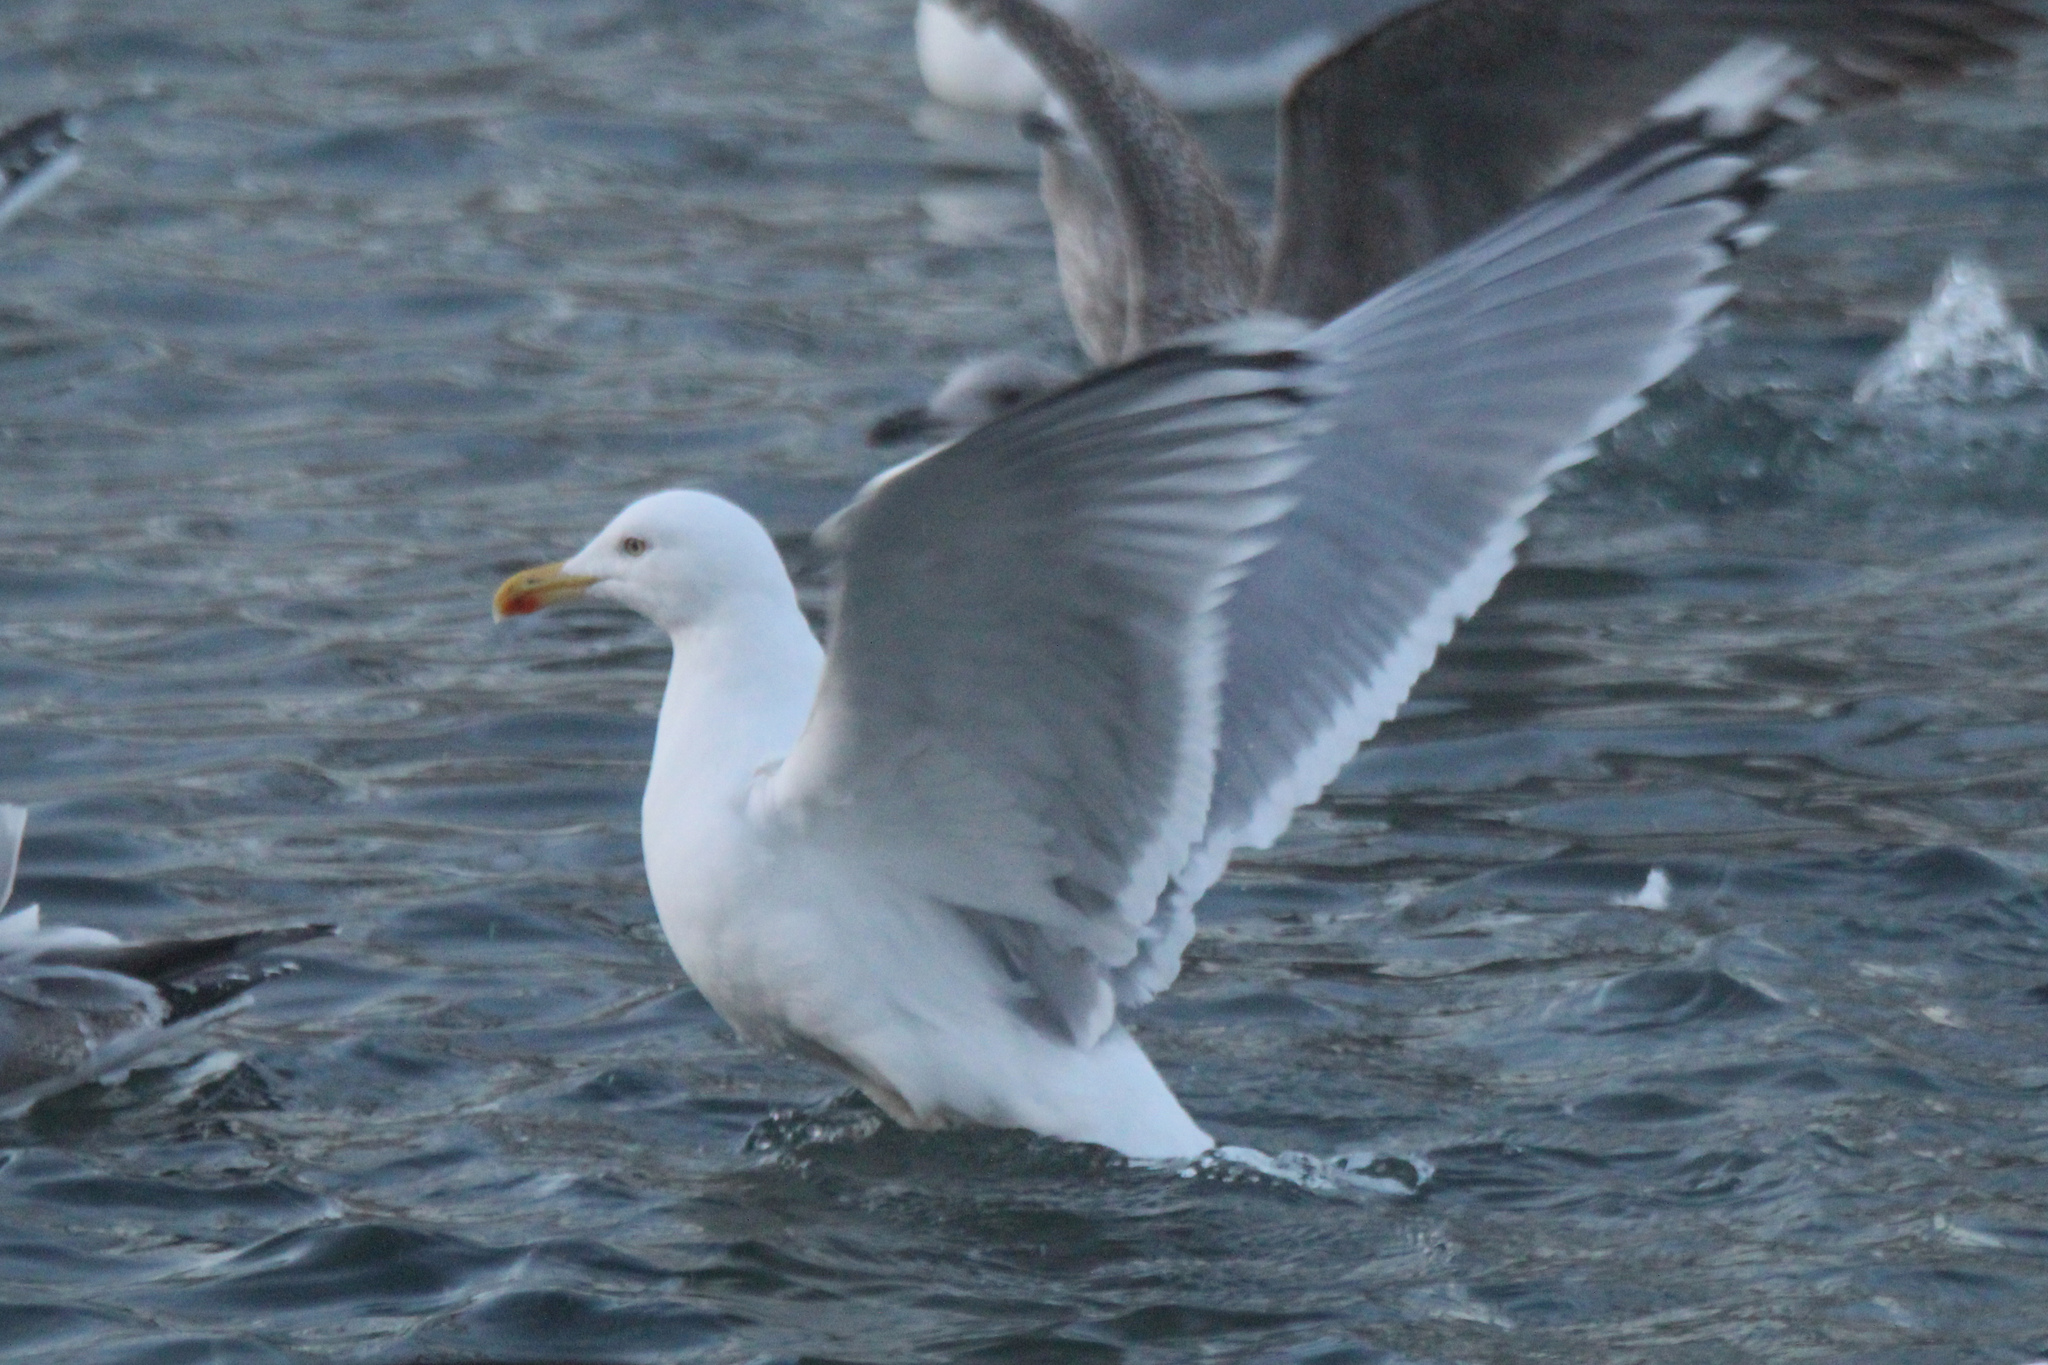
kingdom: Animalia
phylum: Chordata
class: Aves
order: Charadriiformes
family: Laridae
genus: Larus
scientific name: Larus argentatus
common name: Herring gull
